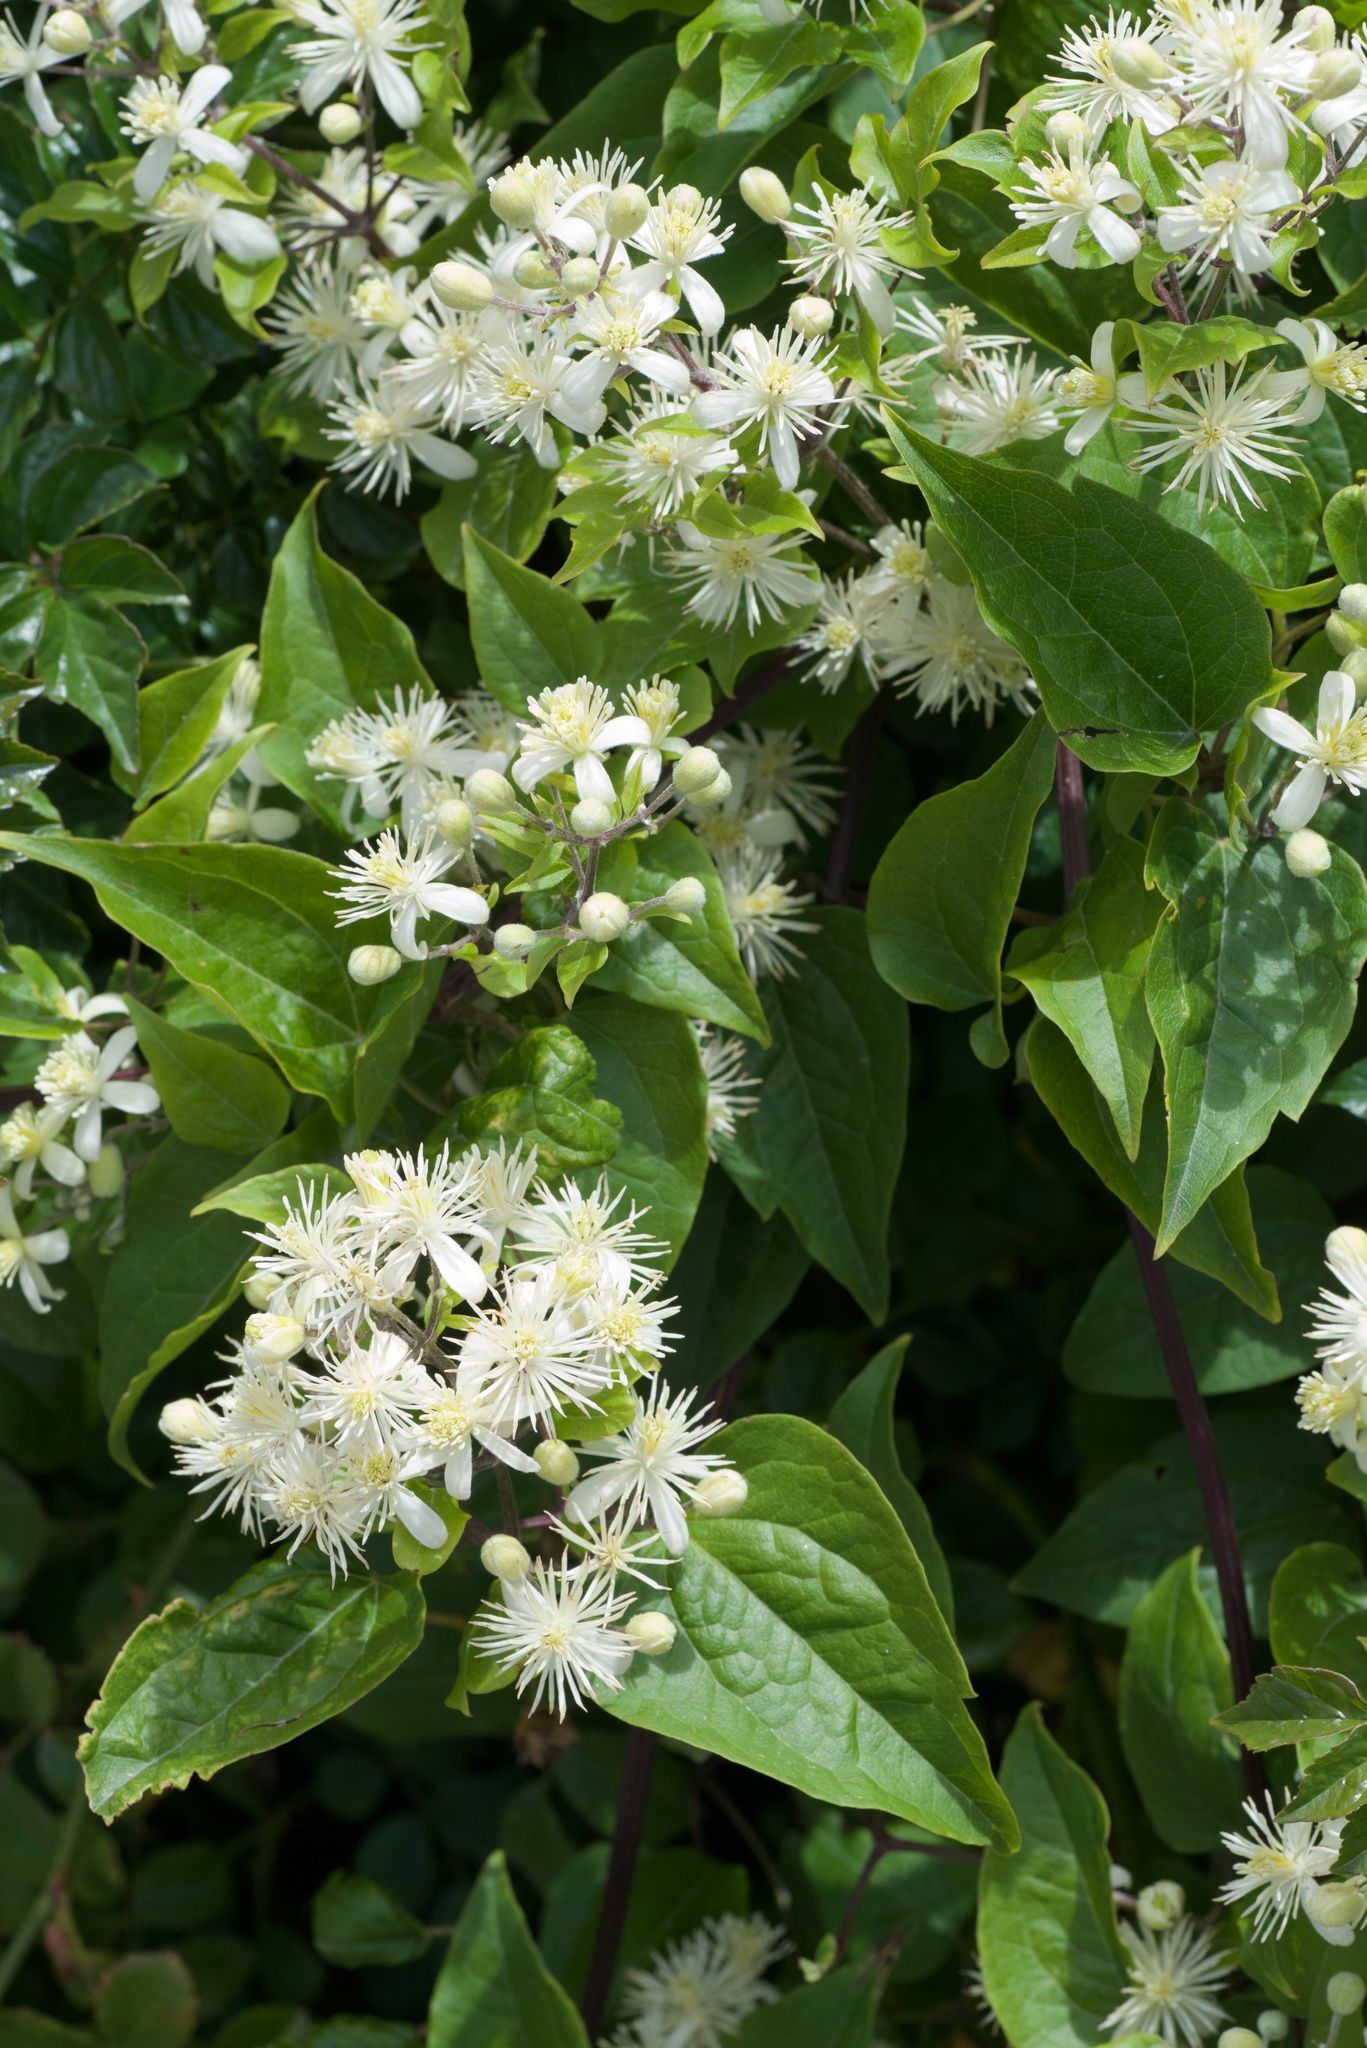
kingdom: Plantae
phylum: Tracheophyta
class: Magnoliopsida
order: Ranunculales
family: Ranunculaceae
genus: Clematis
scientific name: Clematis vitalba
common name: Evergreen clematis
